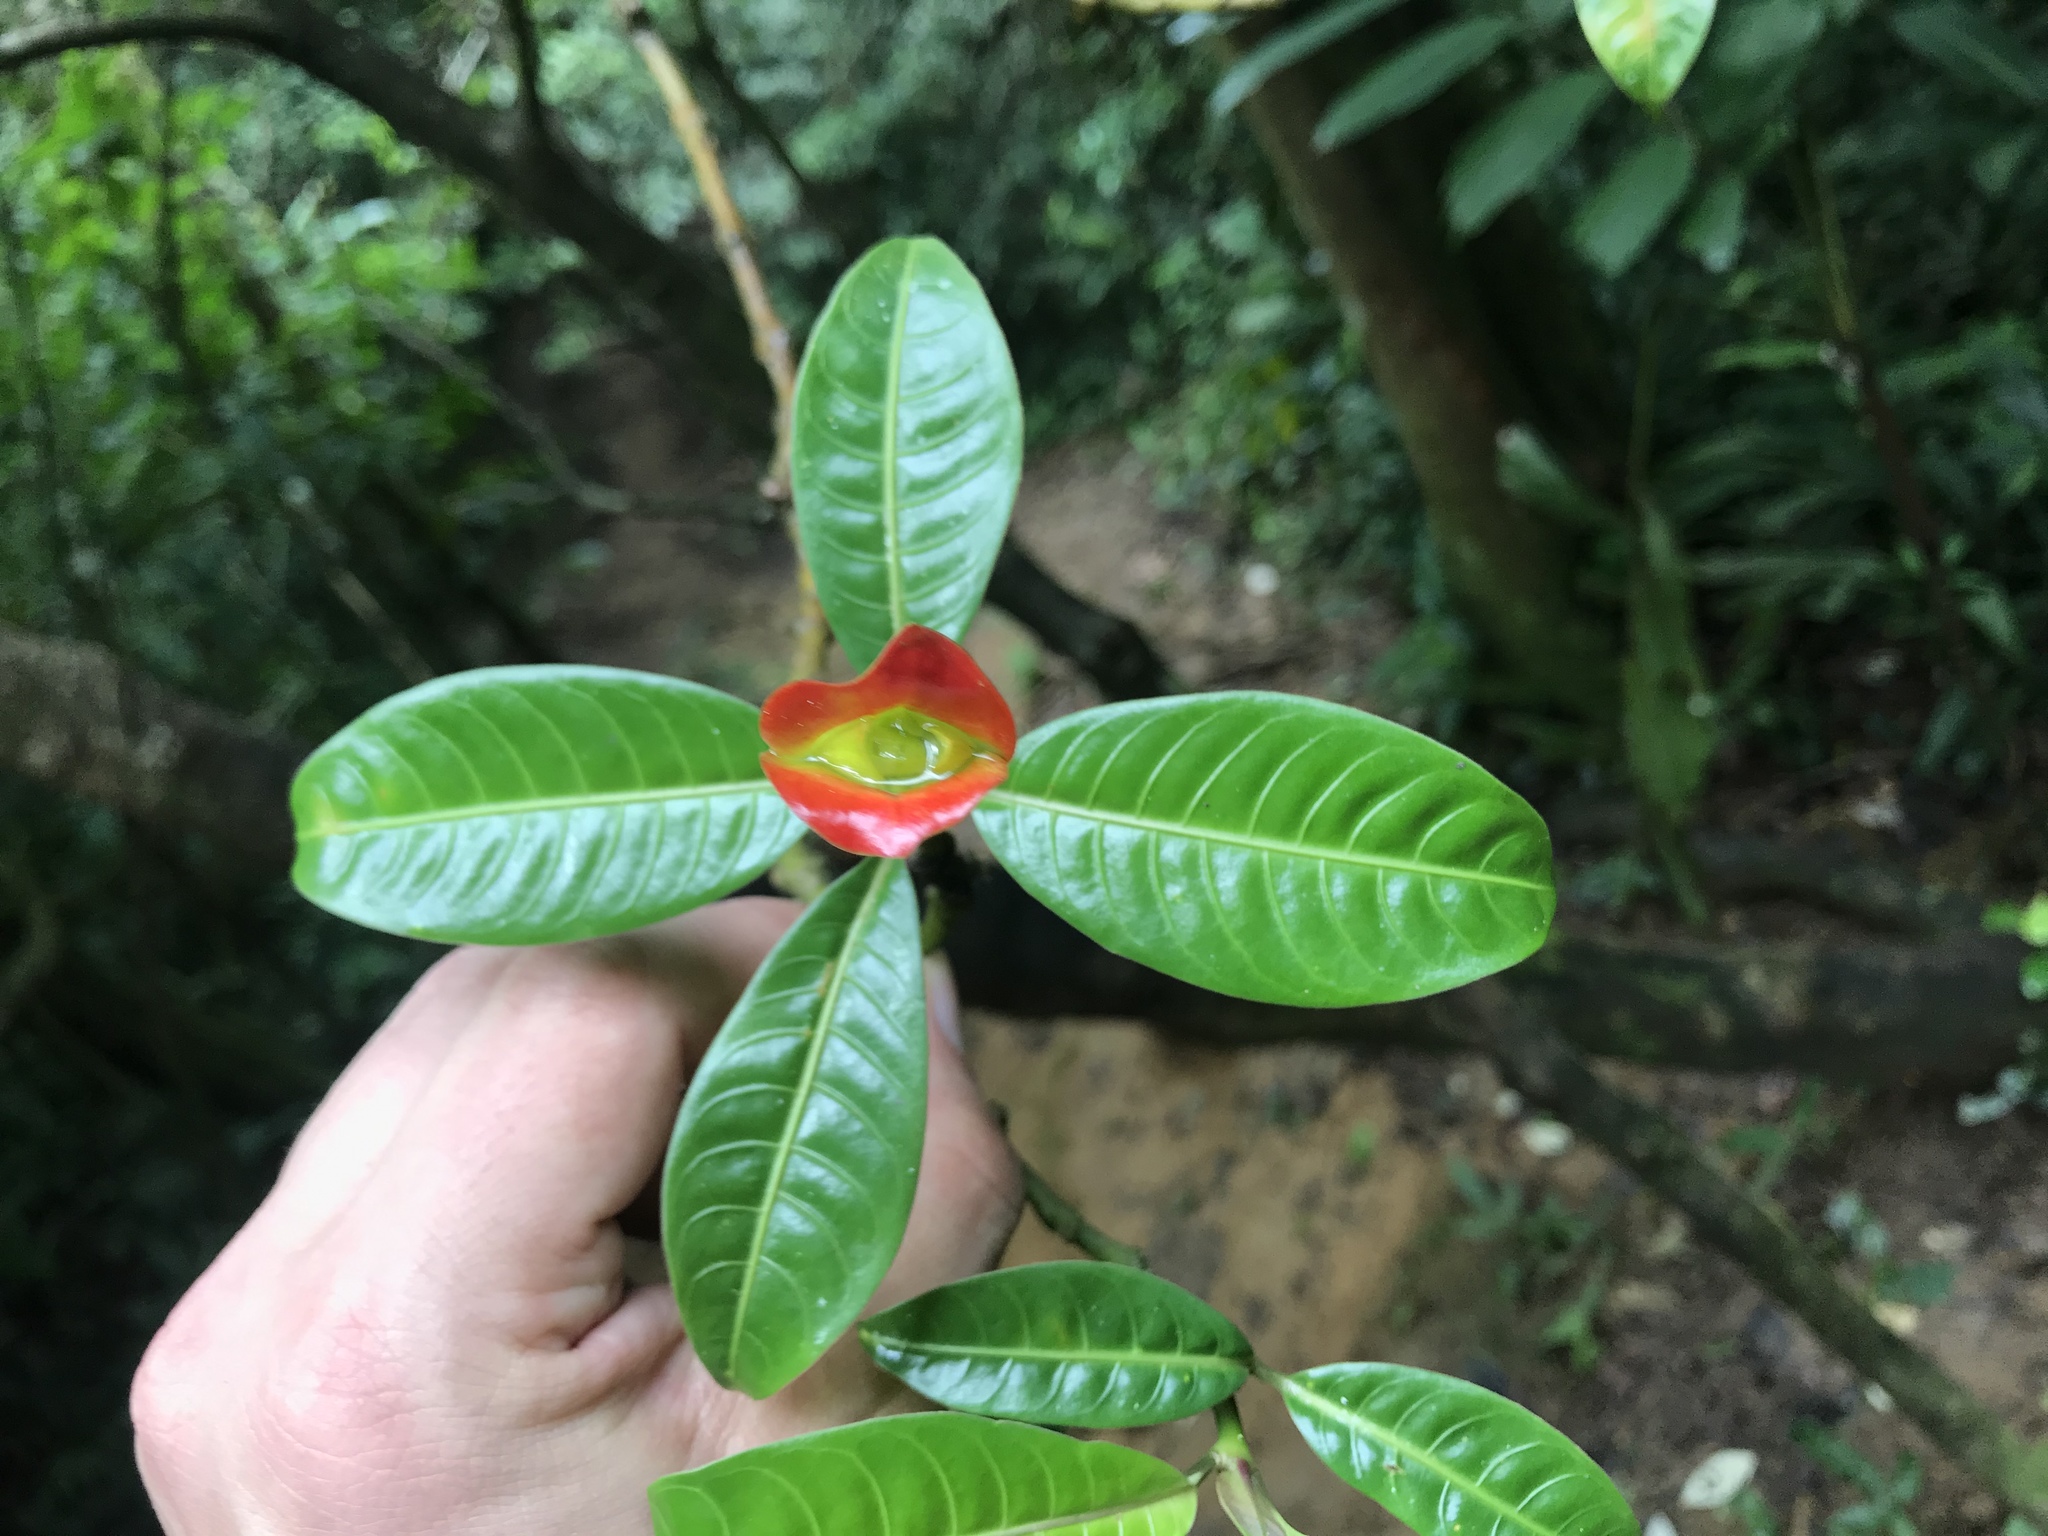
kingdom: Plantae
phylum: Tracheophyta
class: Magnoliopsida
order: Gentianales
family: Rubiaceae
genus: Palicourea
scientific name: Palicourea elata
